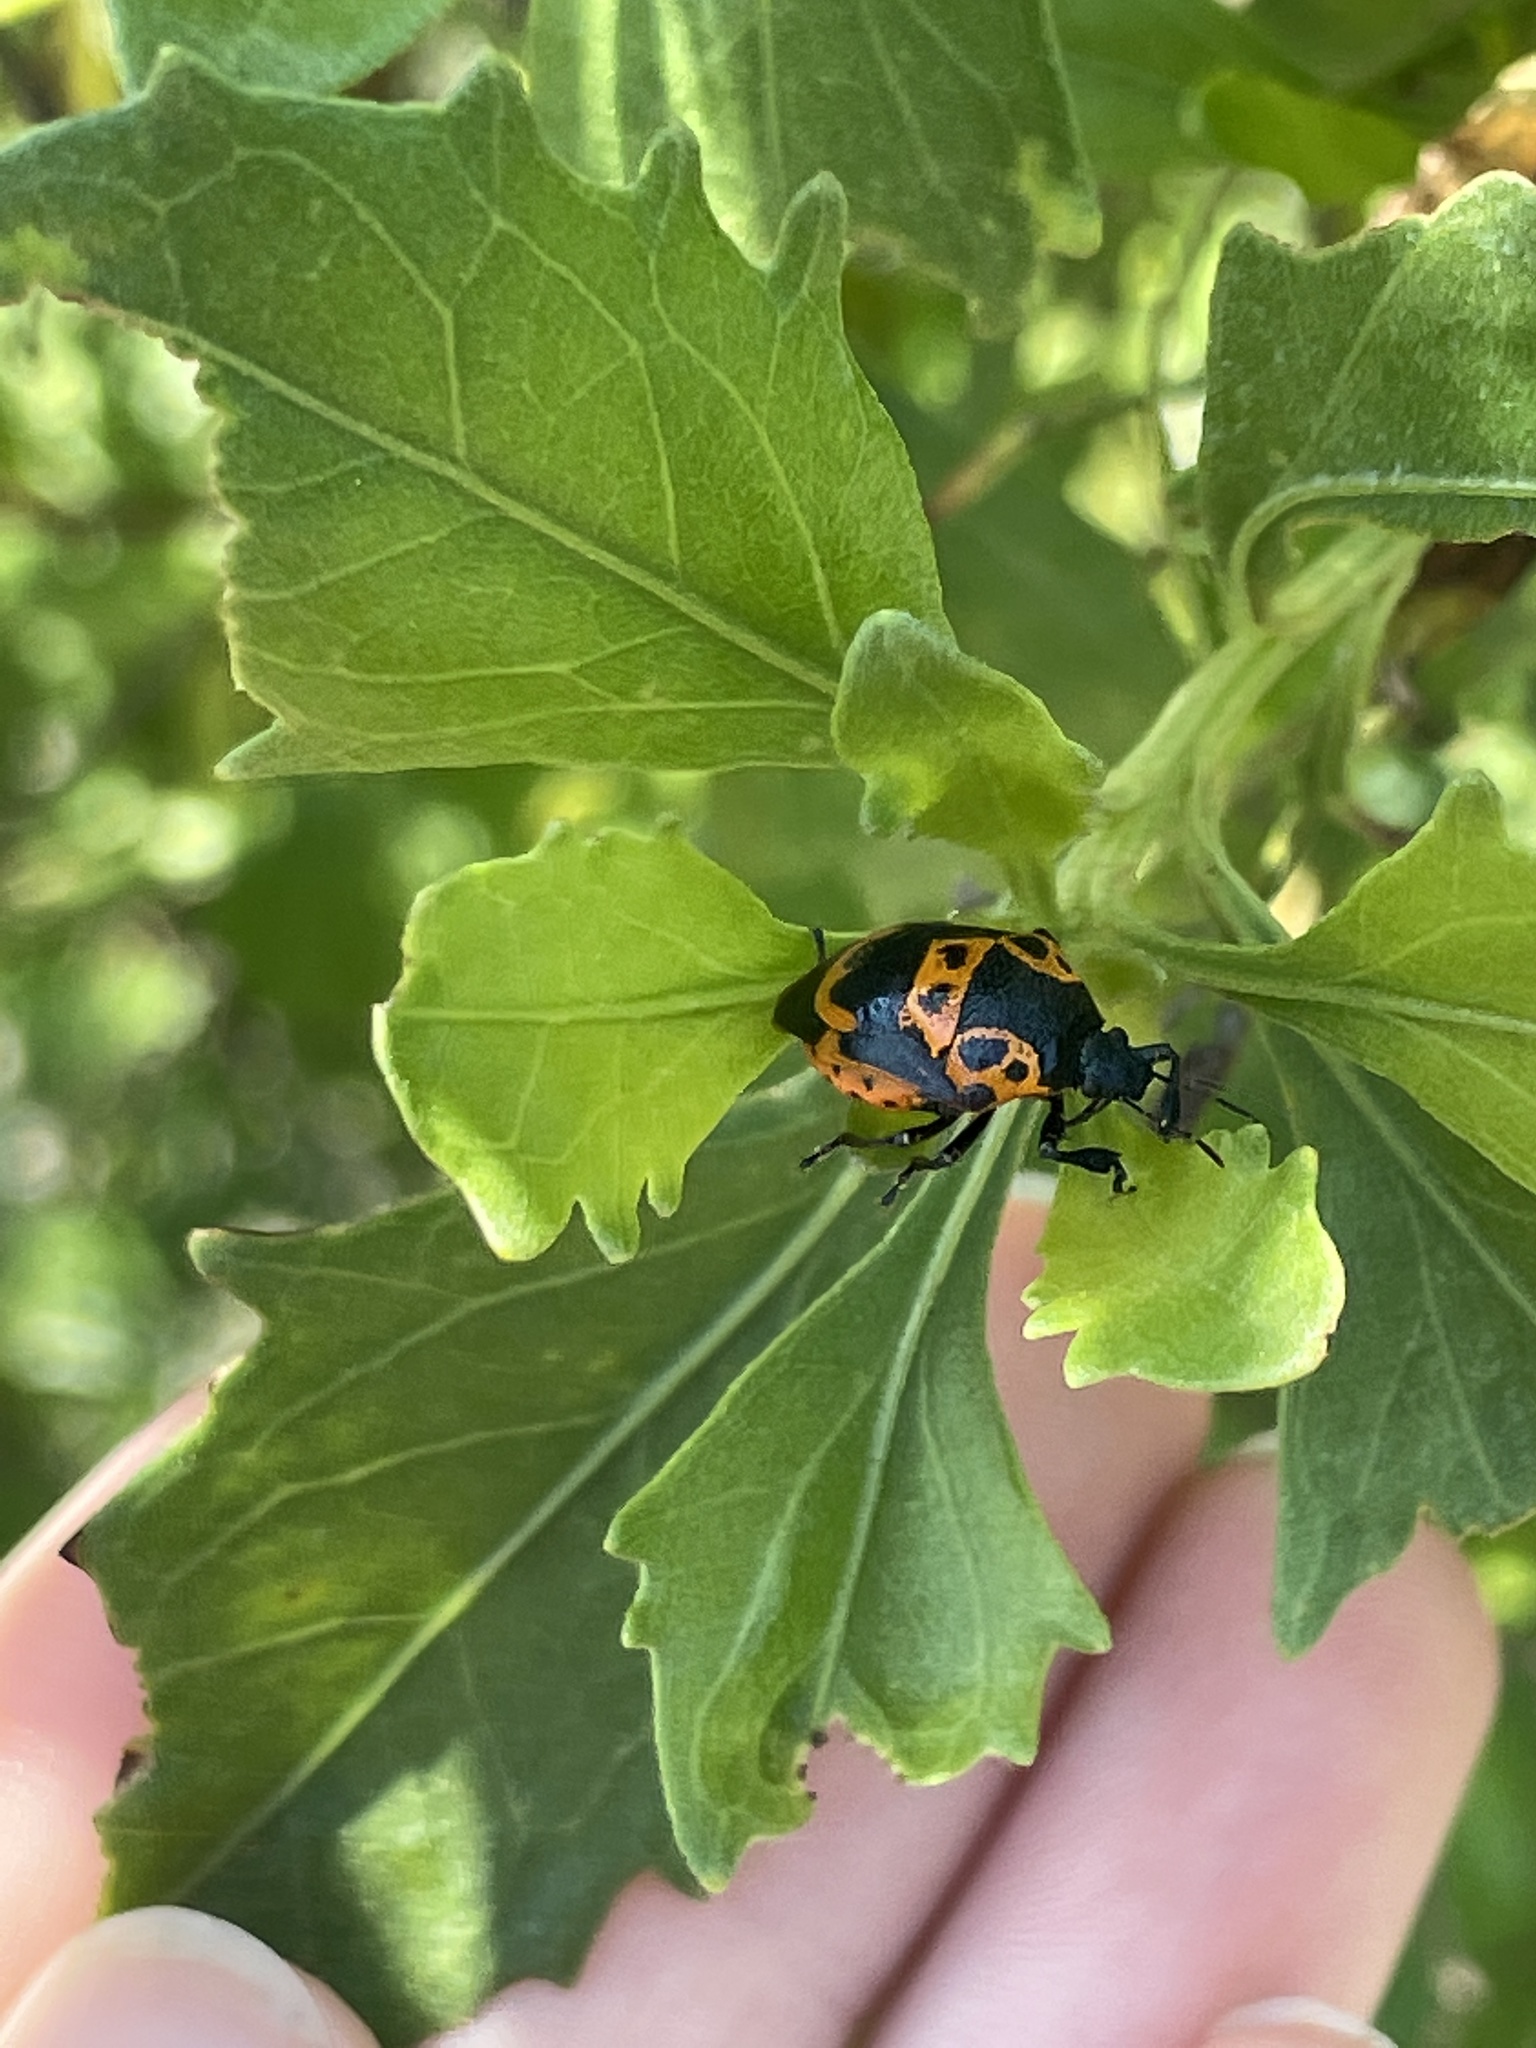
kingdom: Animalia
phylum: Arthropoda
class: Insecta
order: Hemiptera
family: Pentatomidae
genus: Stiretrus
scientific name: Stiretrus anchorago
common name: Anchor stink bug
